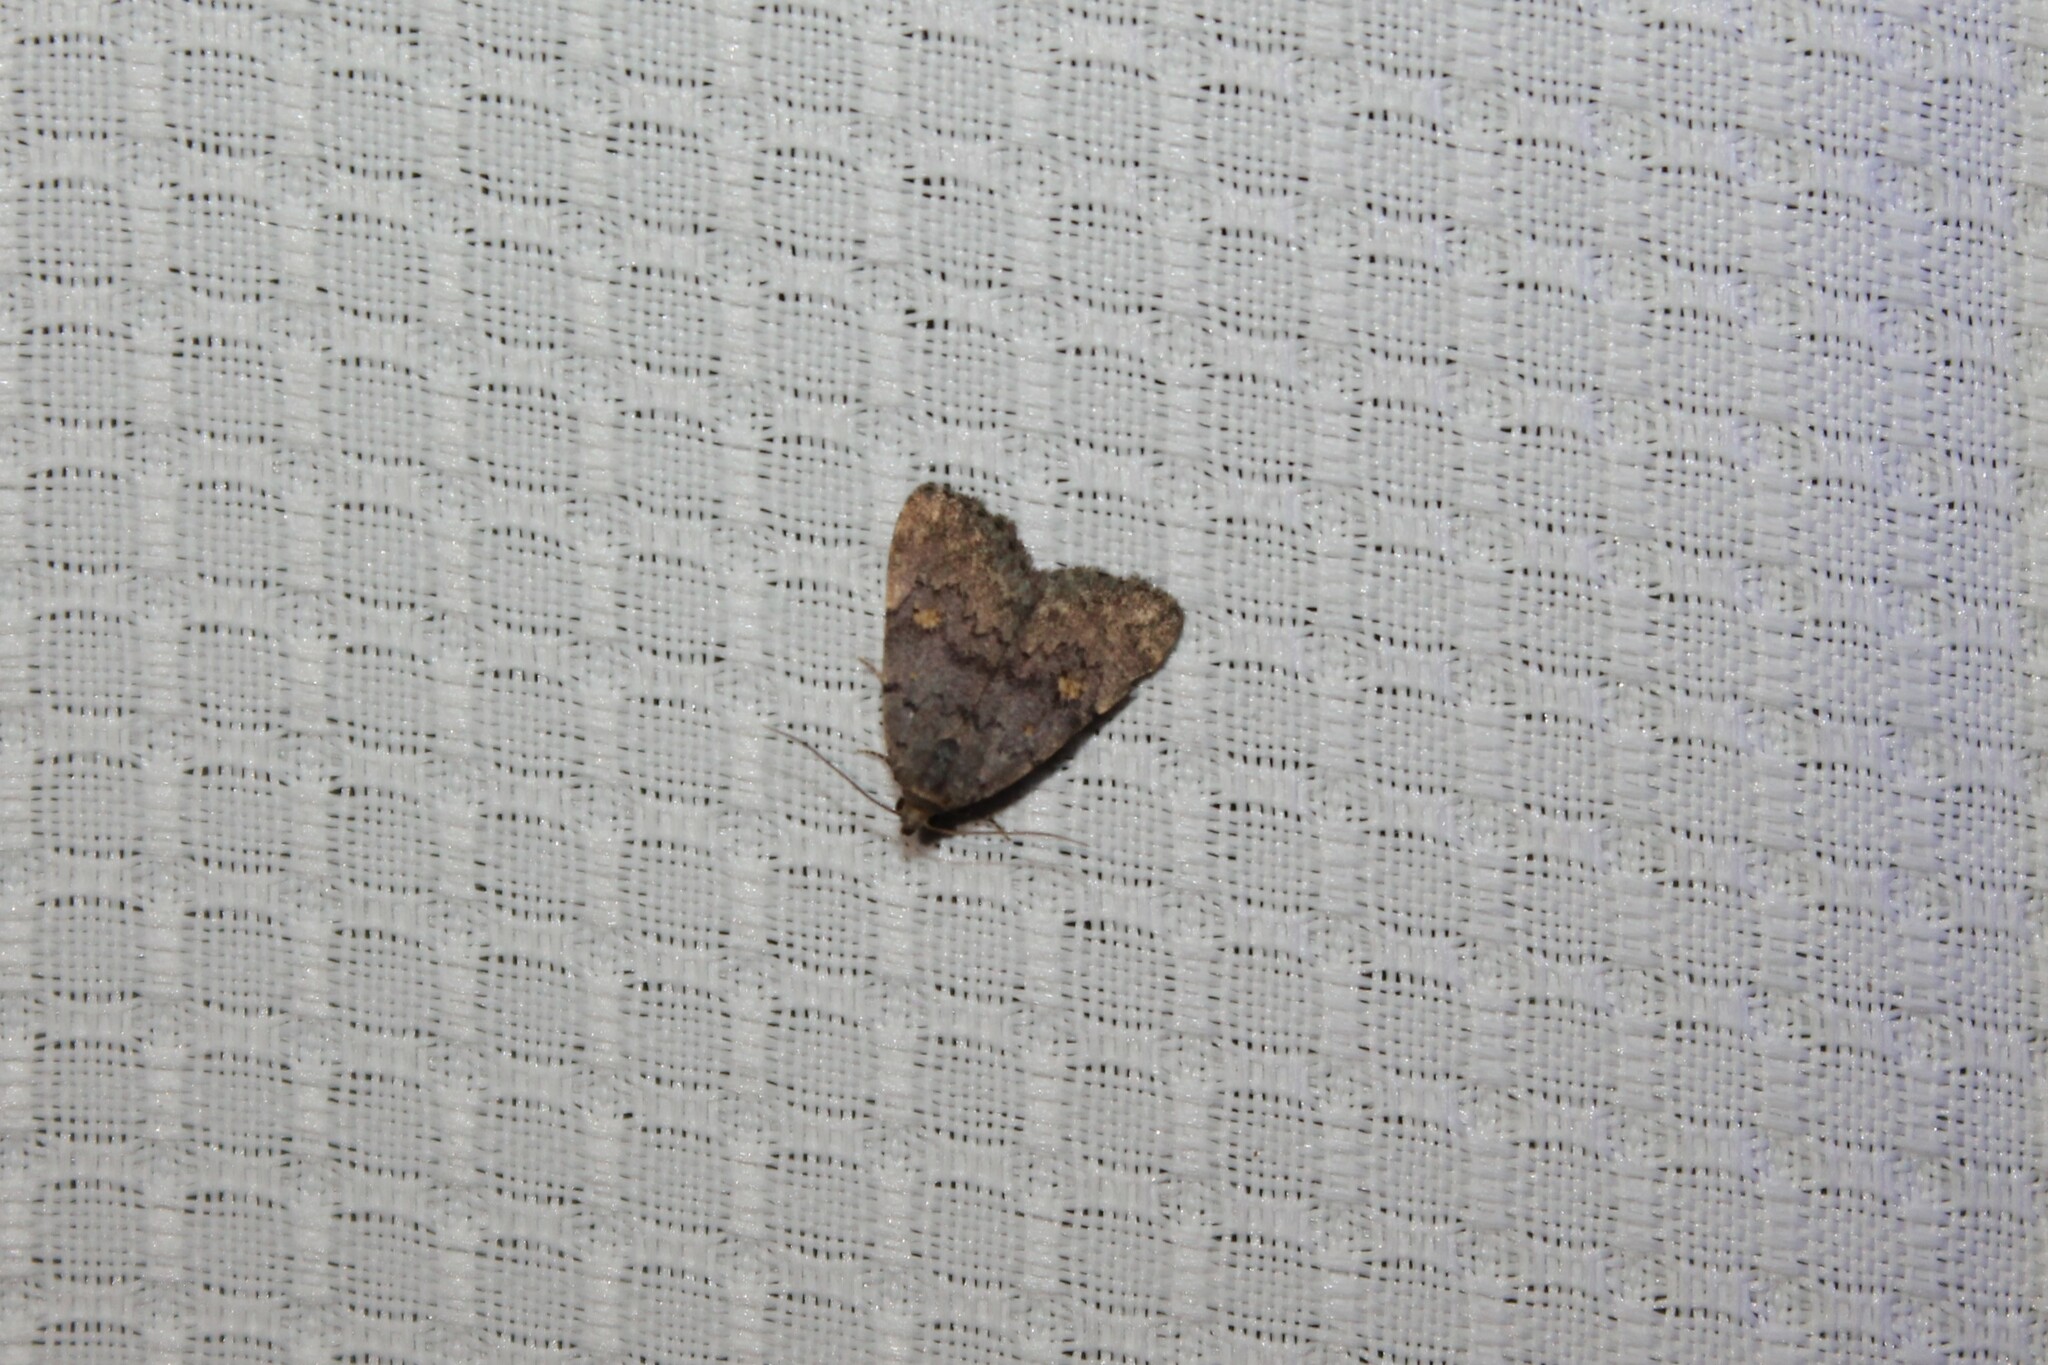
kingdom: Animalia
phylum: Arthropoda
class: Insecta
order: Lepidoptera
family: Erebidae
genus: Idia
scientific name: Idia aemula
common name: Common idia moth
